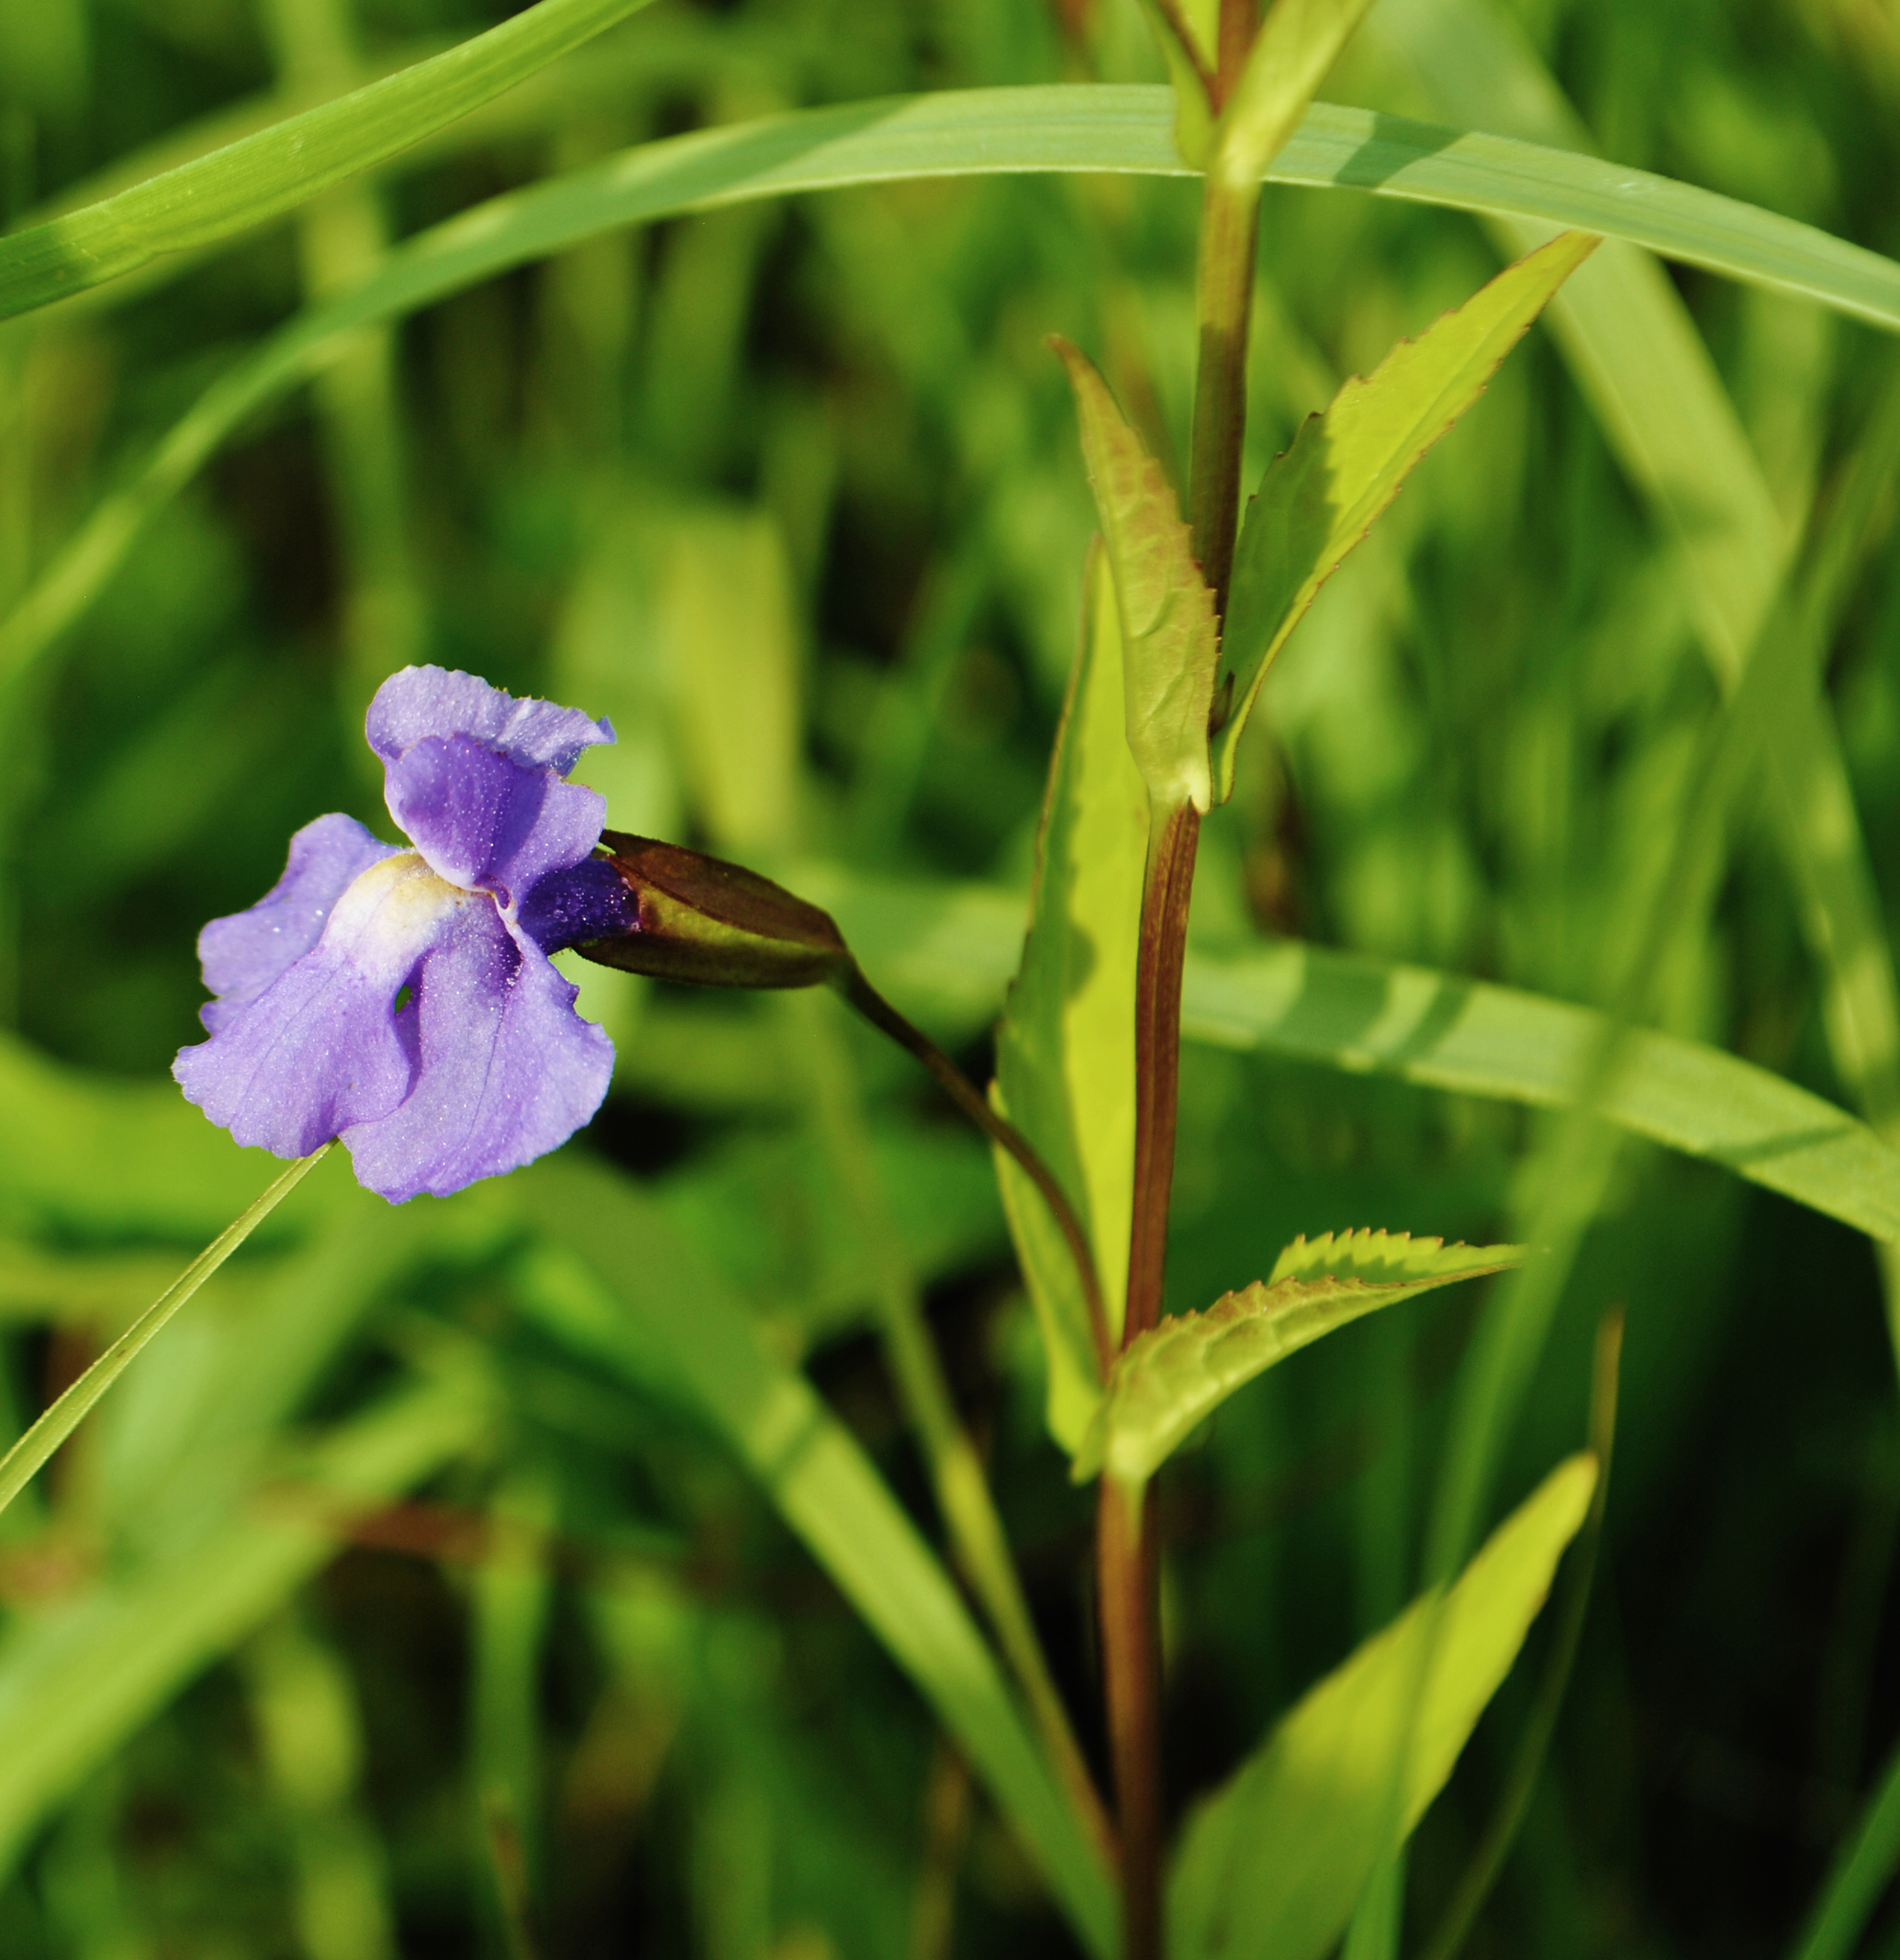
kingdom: Plantae
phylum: Tracheophyta
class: Magnoliopsida
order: Lamiales
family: Phrymaceae
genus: Mimulus
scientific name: Mimulus ringens
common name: Allegheny monkeyflower
